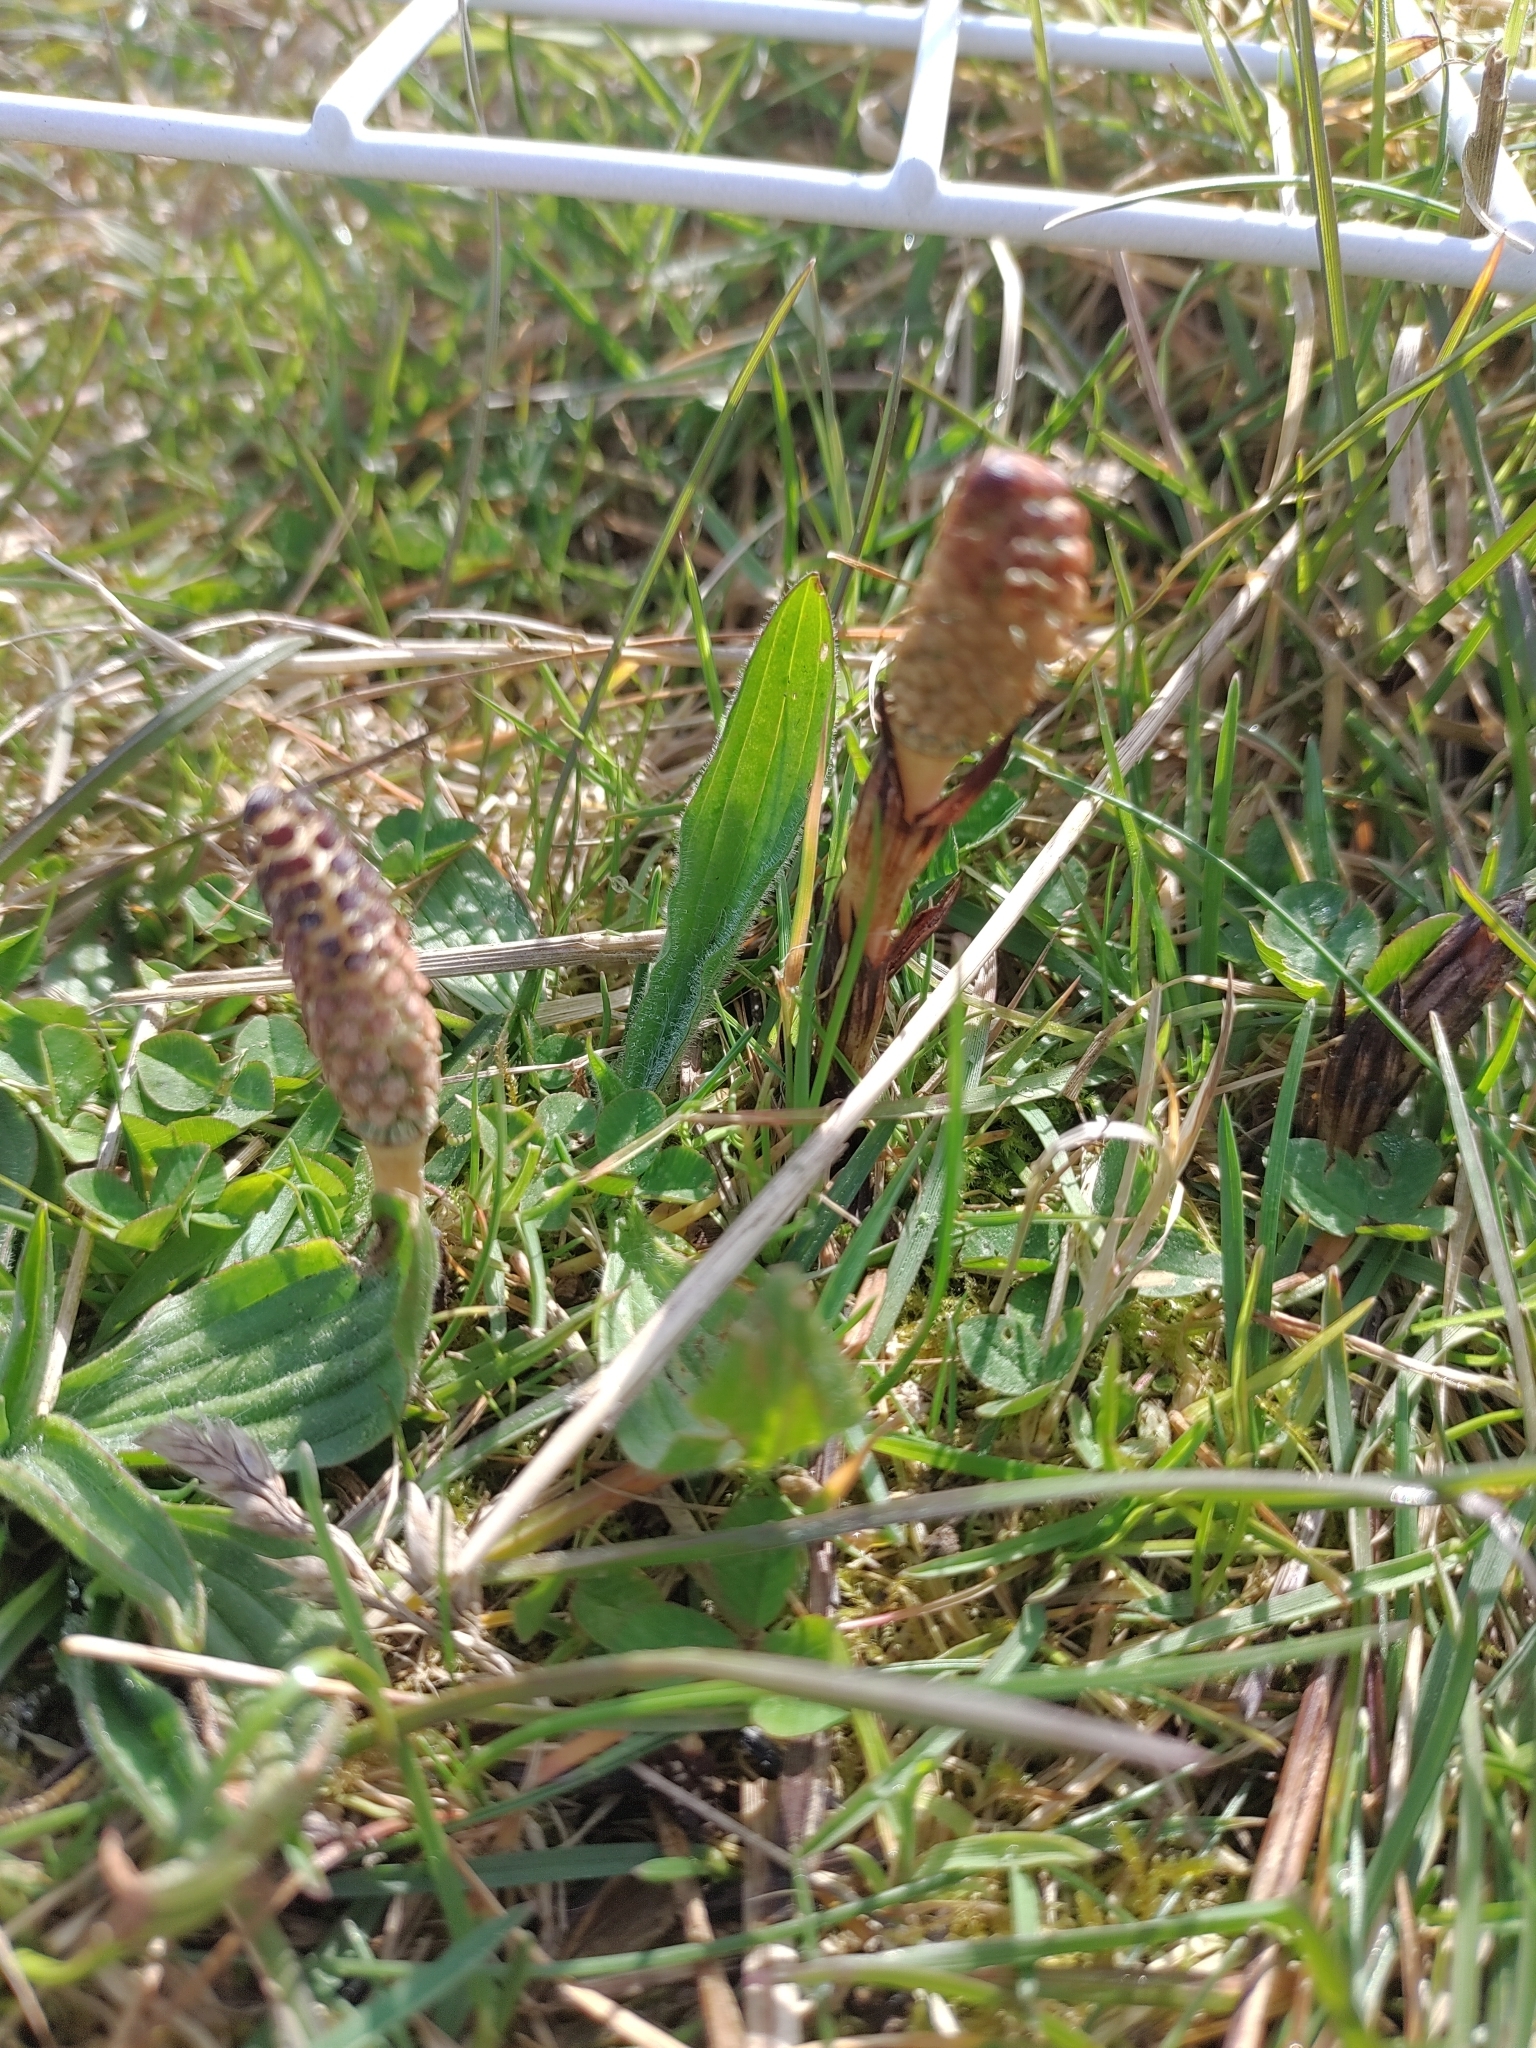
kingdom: Plantae
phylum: Tracheophyta
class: Polypodiopsida
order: Equisetales
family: Equisetaceae
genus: Equisetum
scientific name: Equisetum arvense
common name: Field horsetail
